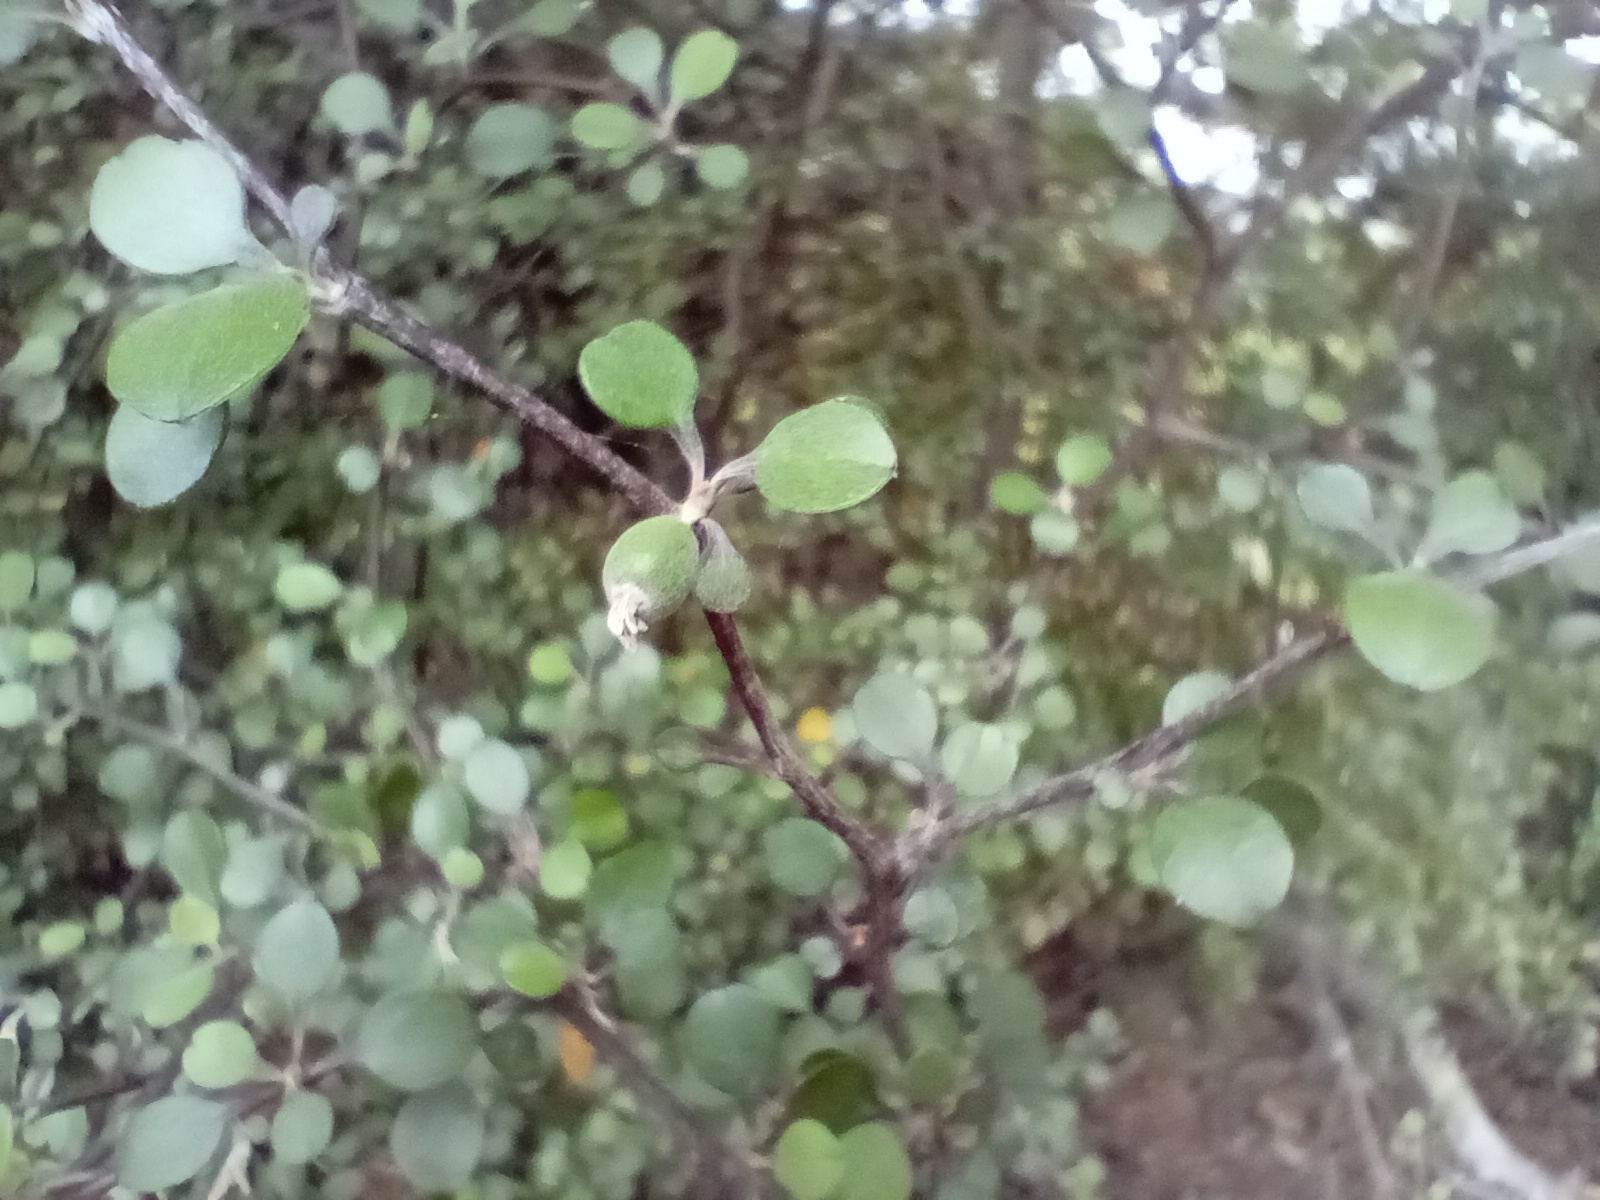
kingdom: Plantae
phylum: Tracheophyta
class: Magnoliopsida
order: Asterales
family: Argophyllaceae
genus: Corokia
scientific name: Corokia cotoneaster
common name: Wire nettingbush
